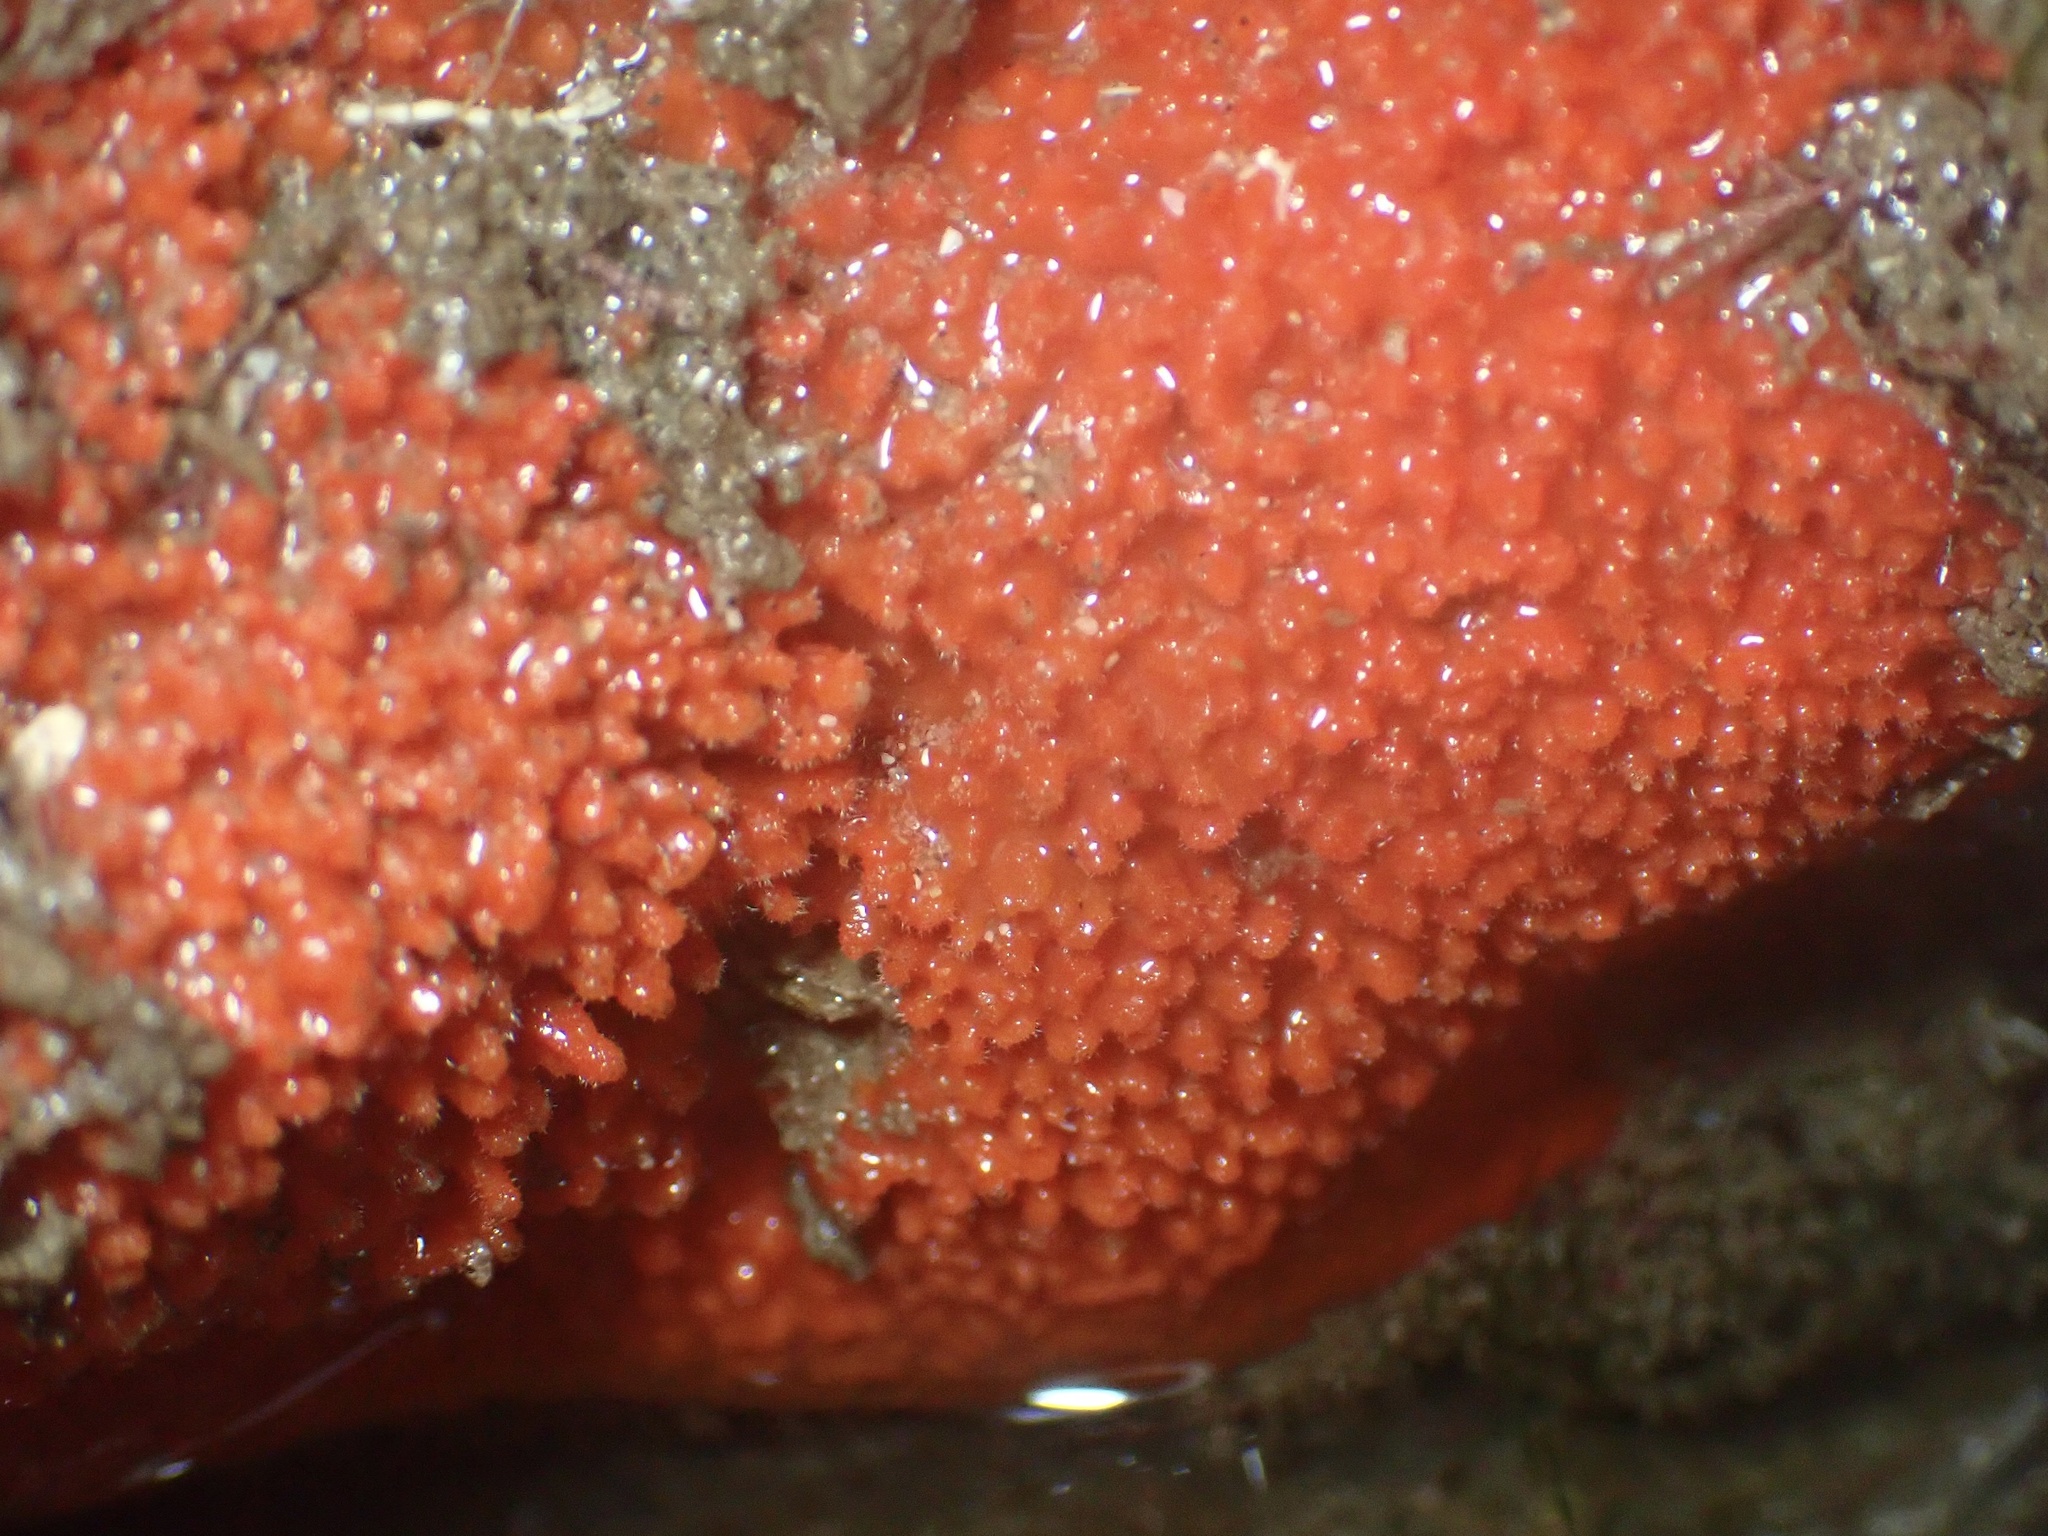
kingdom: Animalia
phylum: Porifera
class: Demospongiae
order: Axinellida
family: Raspailiidae
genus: Endectyon
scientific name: Endectyon hispitumulus
